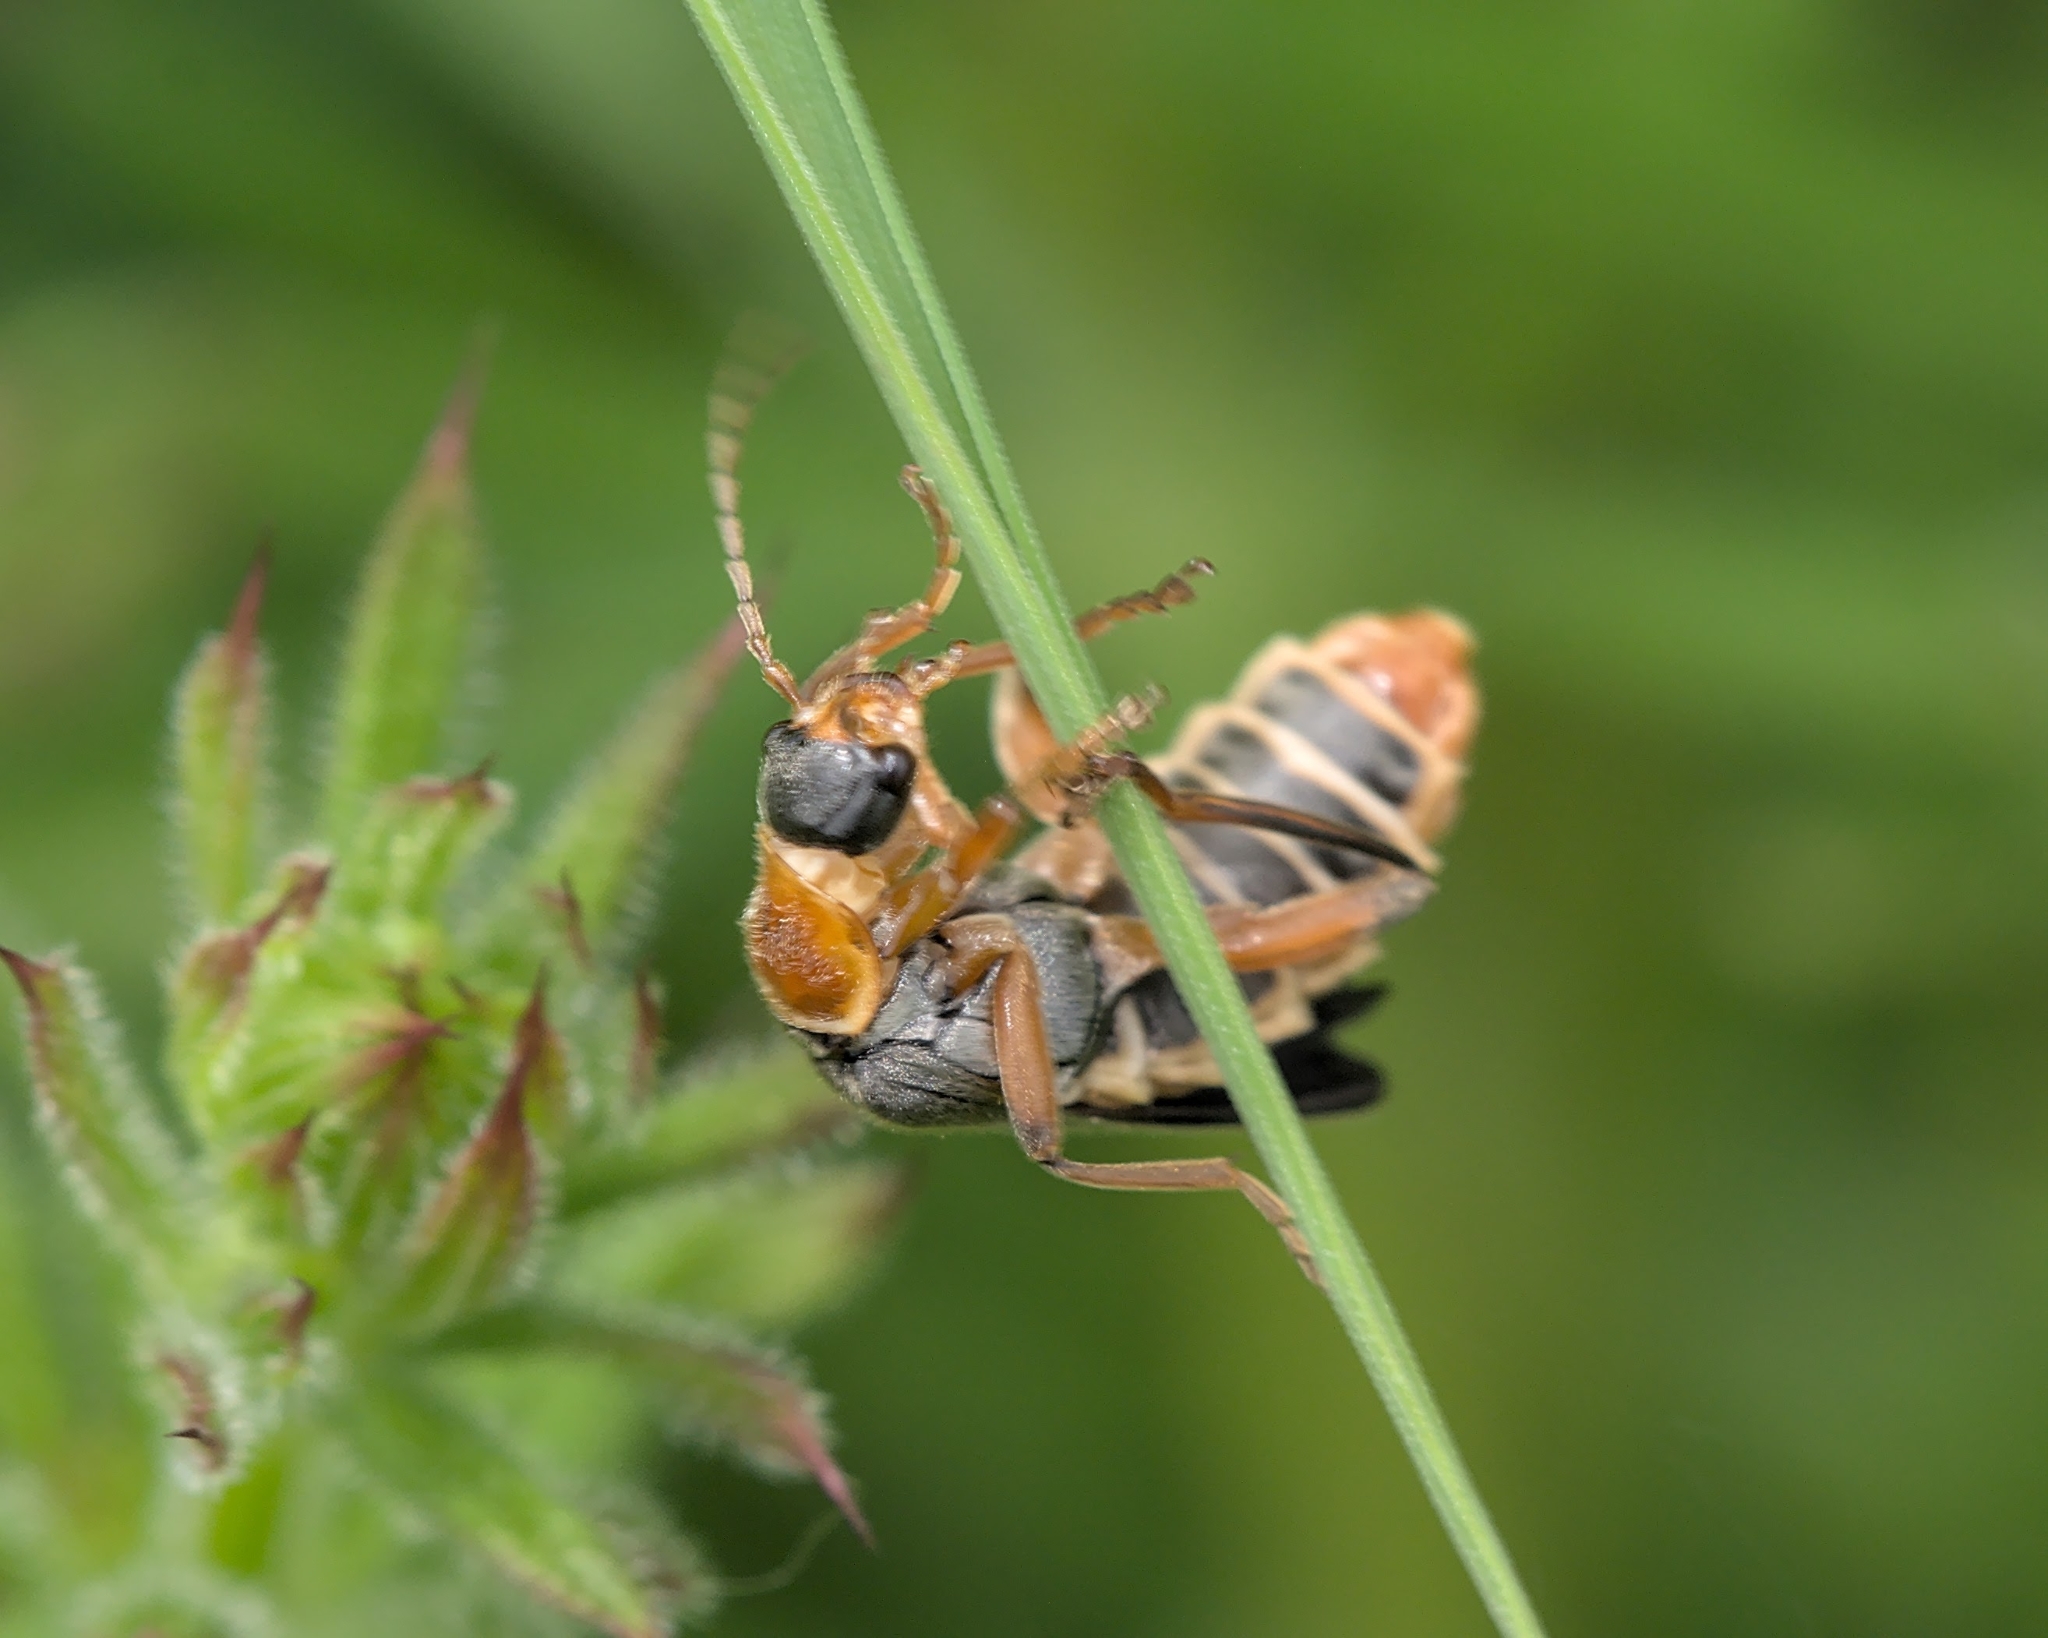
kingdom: Animalia
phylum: Arthropoda
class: Insecta
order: Coleoptera
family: Cantharidae
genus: Cantharis
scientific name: Cantharis nigricans
